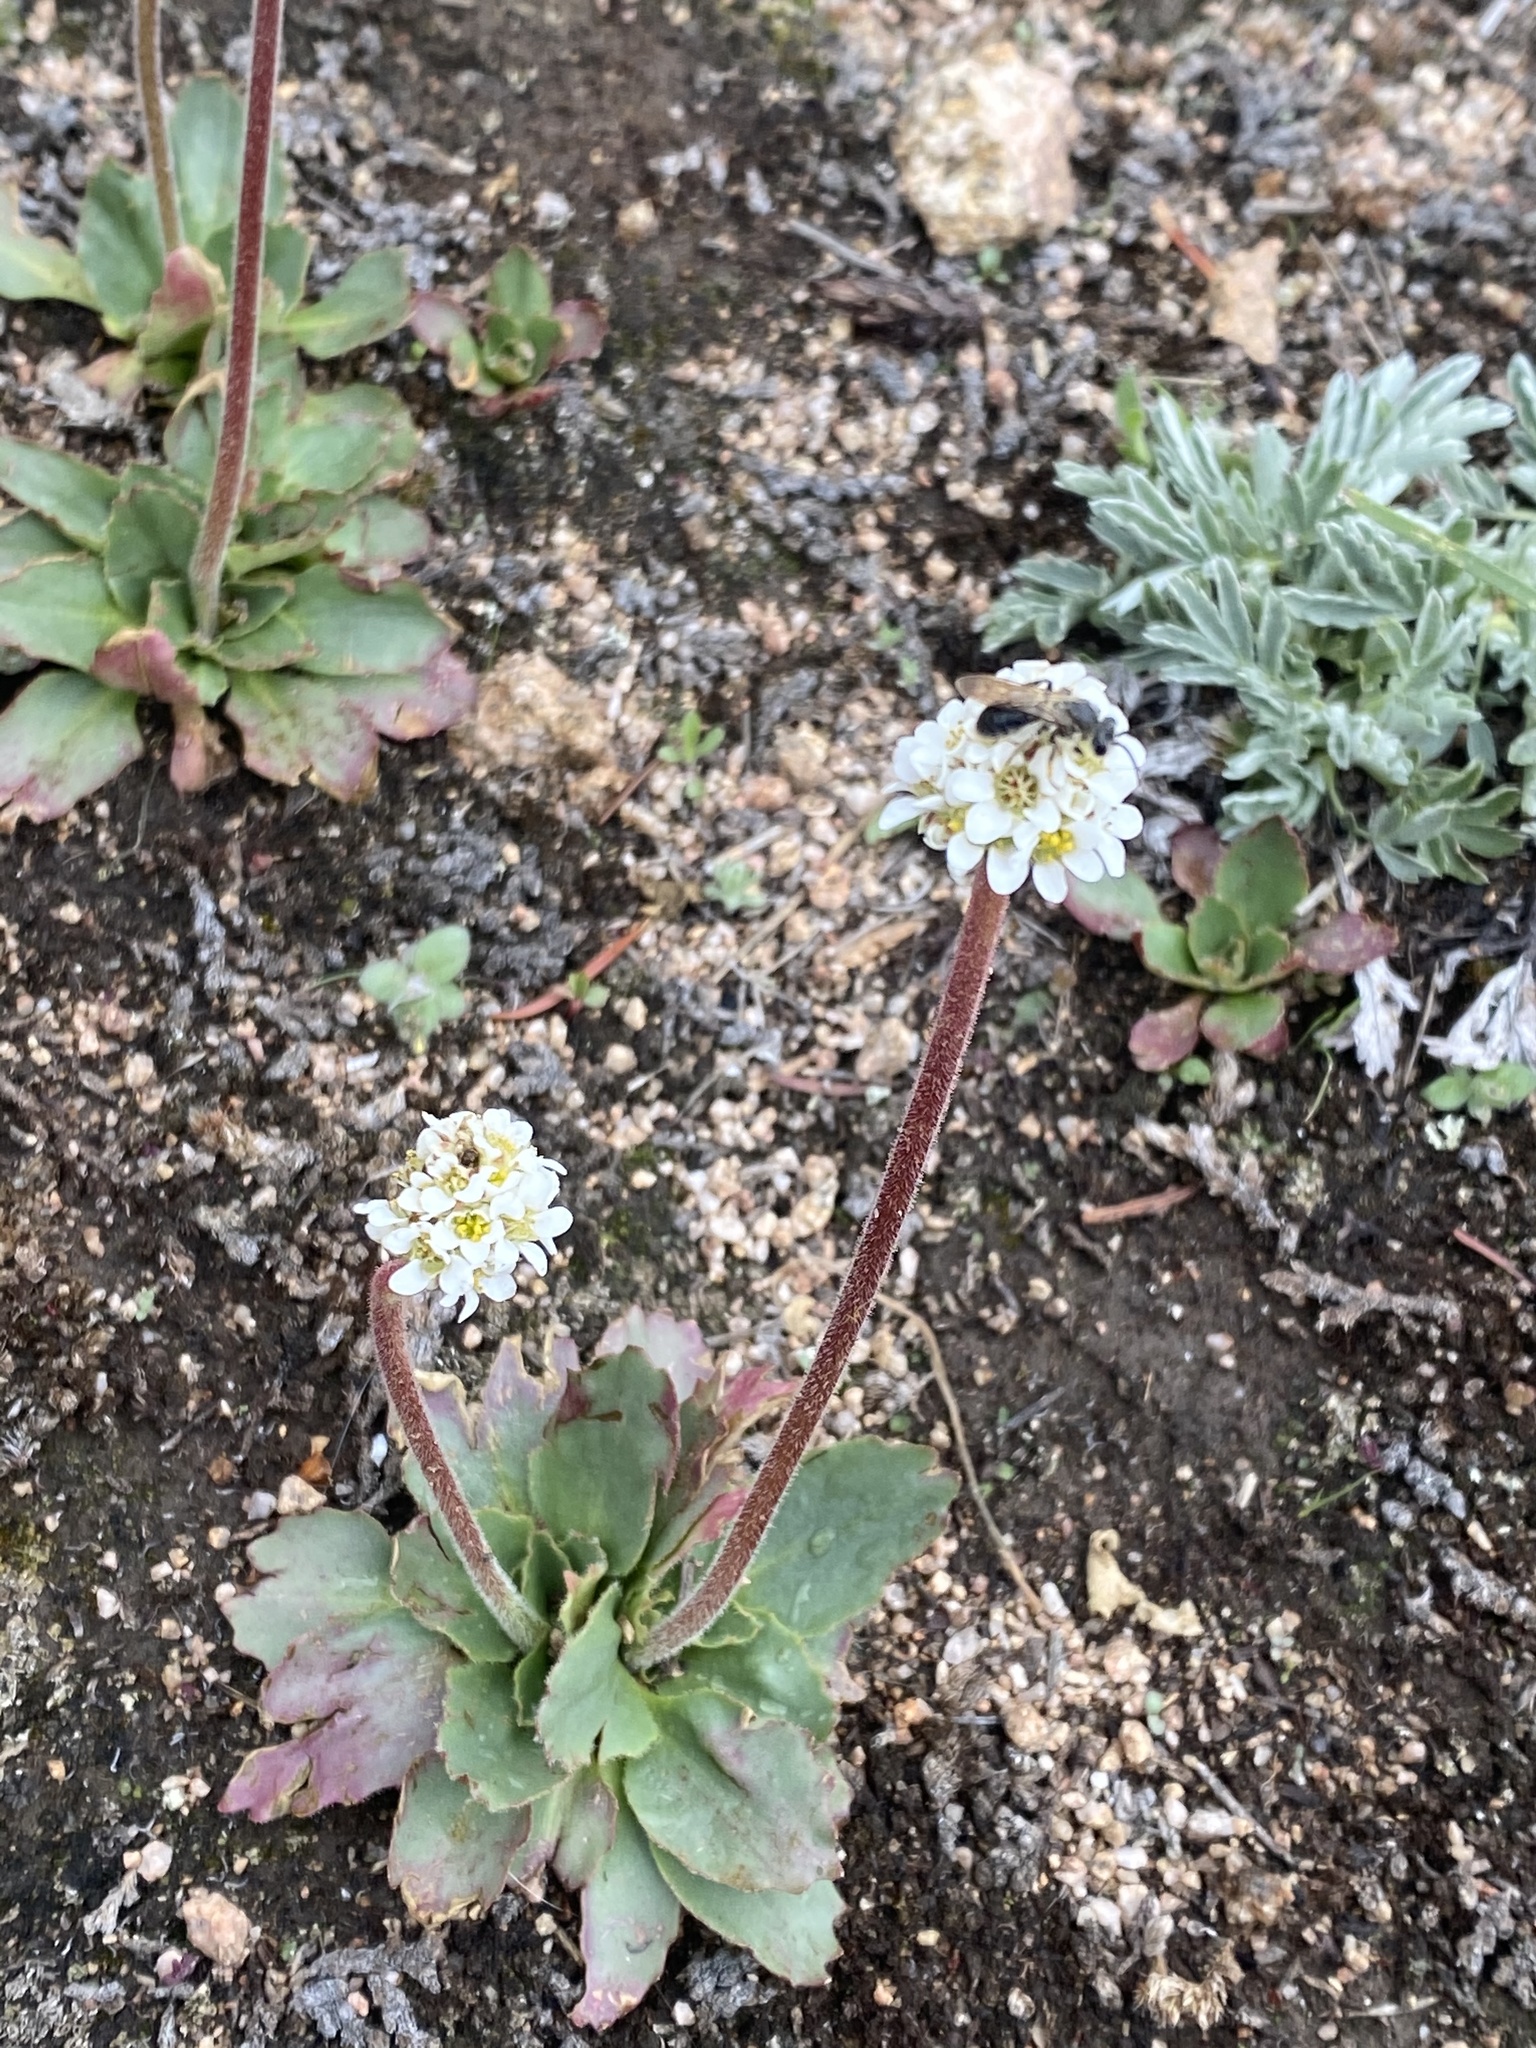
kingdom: Plantae
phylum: Tracheophyta
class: Magnoliopsida
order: Saxifragales
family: Saxifragaceae
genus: Micranthes
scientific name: Micranthes rhomboidea
